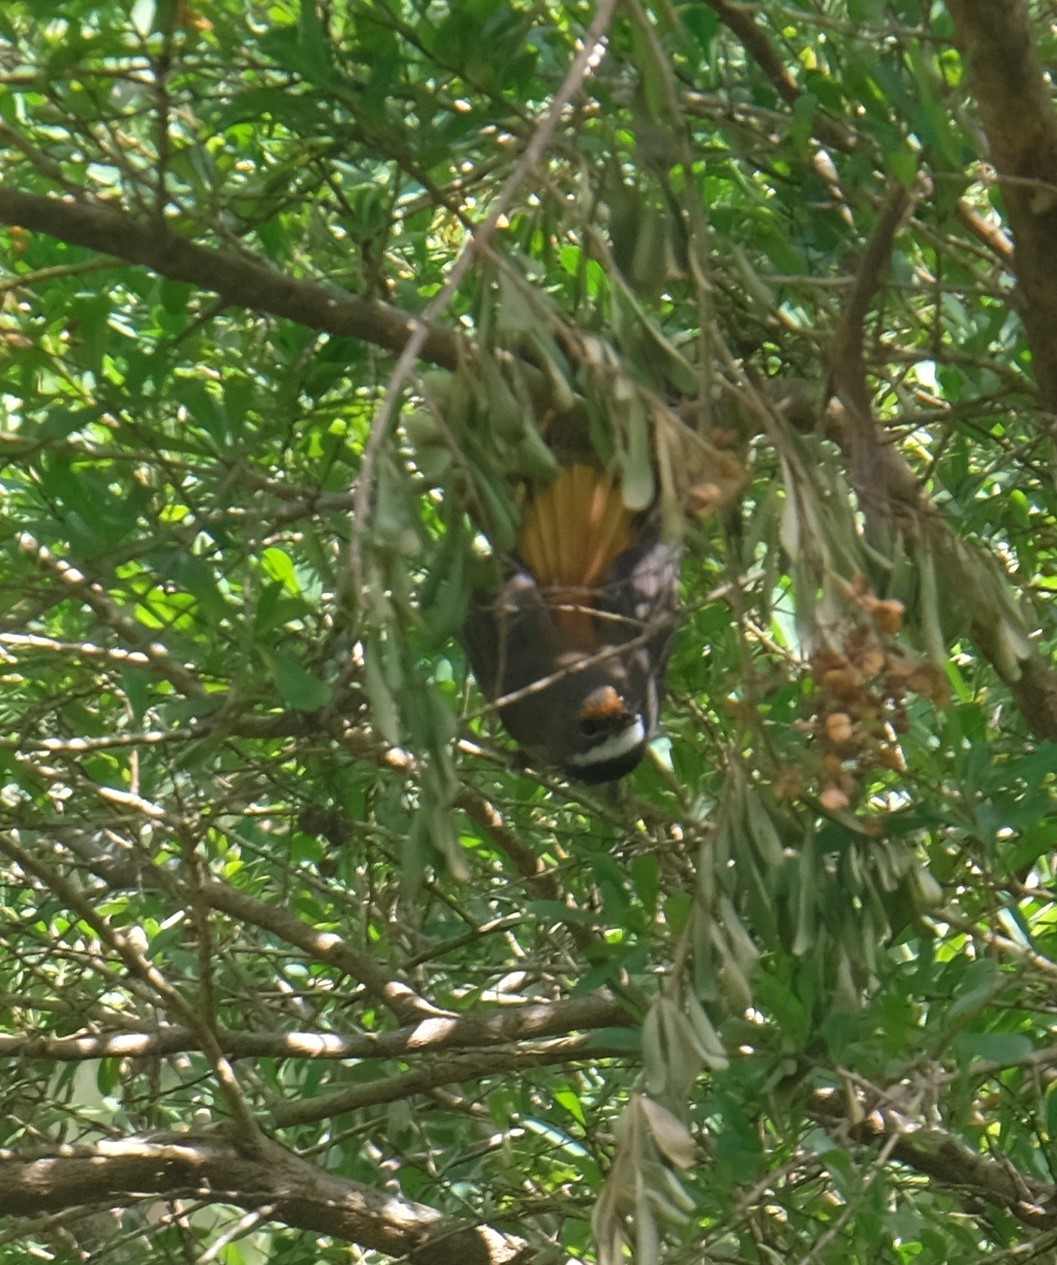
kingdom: Animalia
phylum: Chordata
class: Aves
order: Passeriformes
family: Rhipiduridae
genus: Rhipidura
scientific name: Rhipidura rufifrons
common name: Rufous fantail
